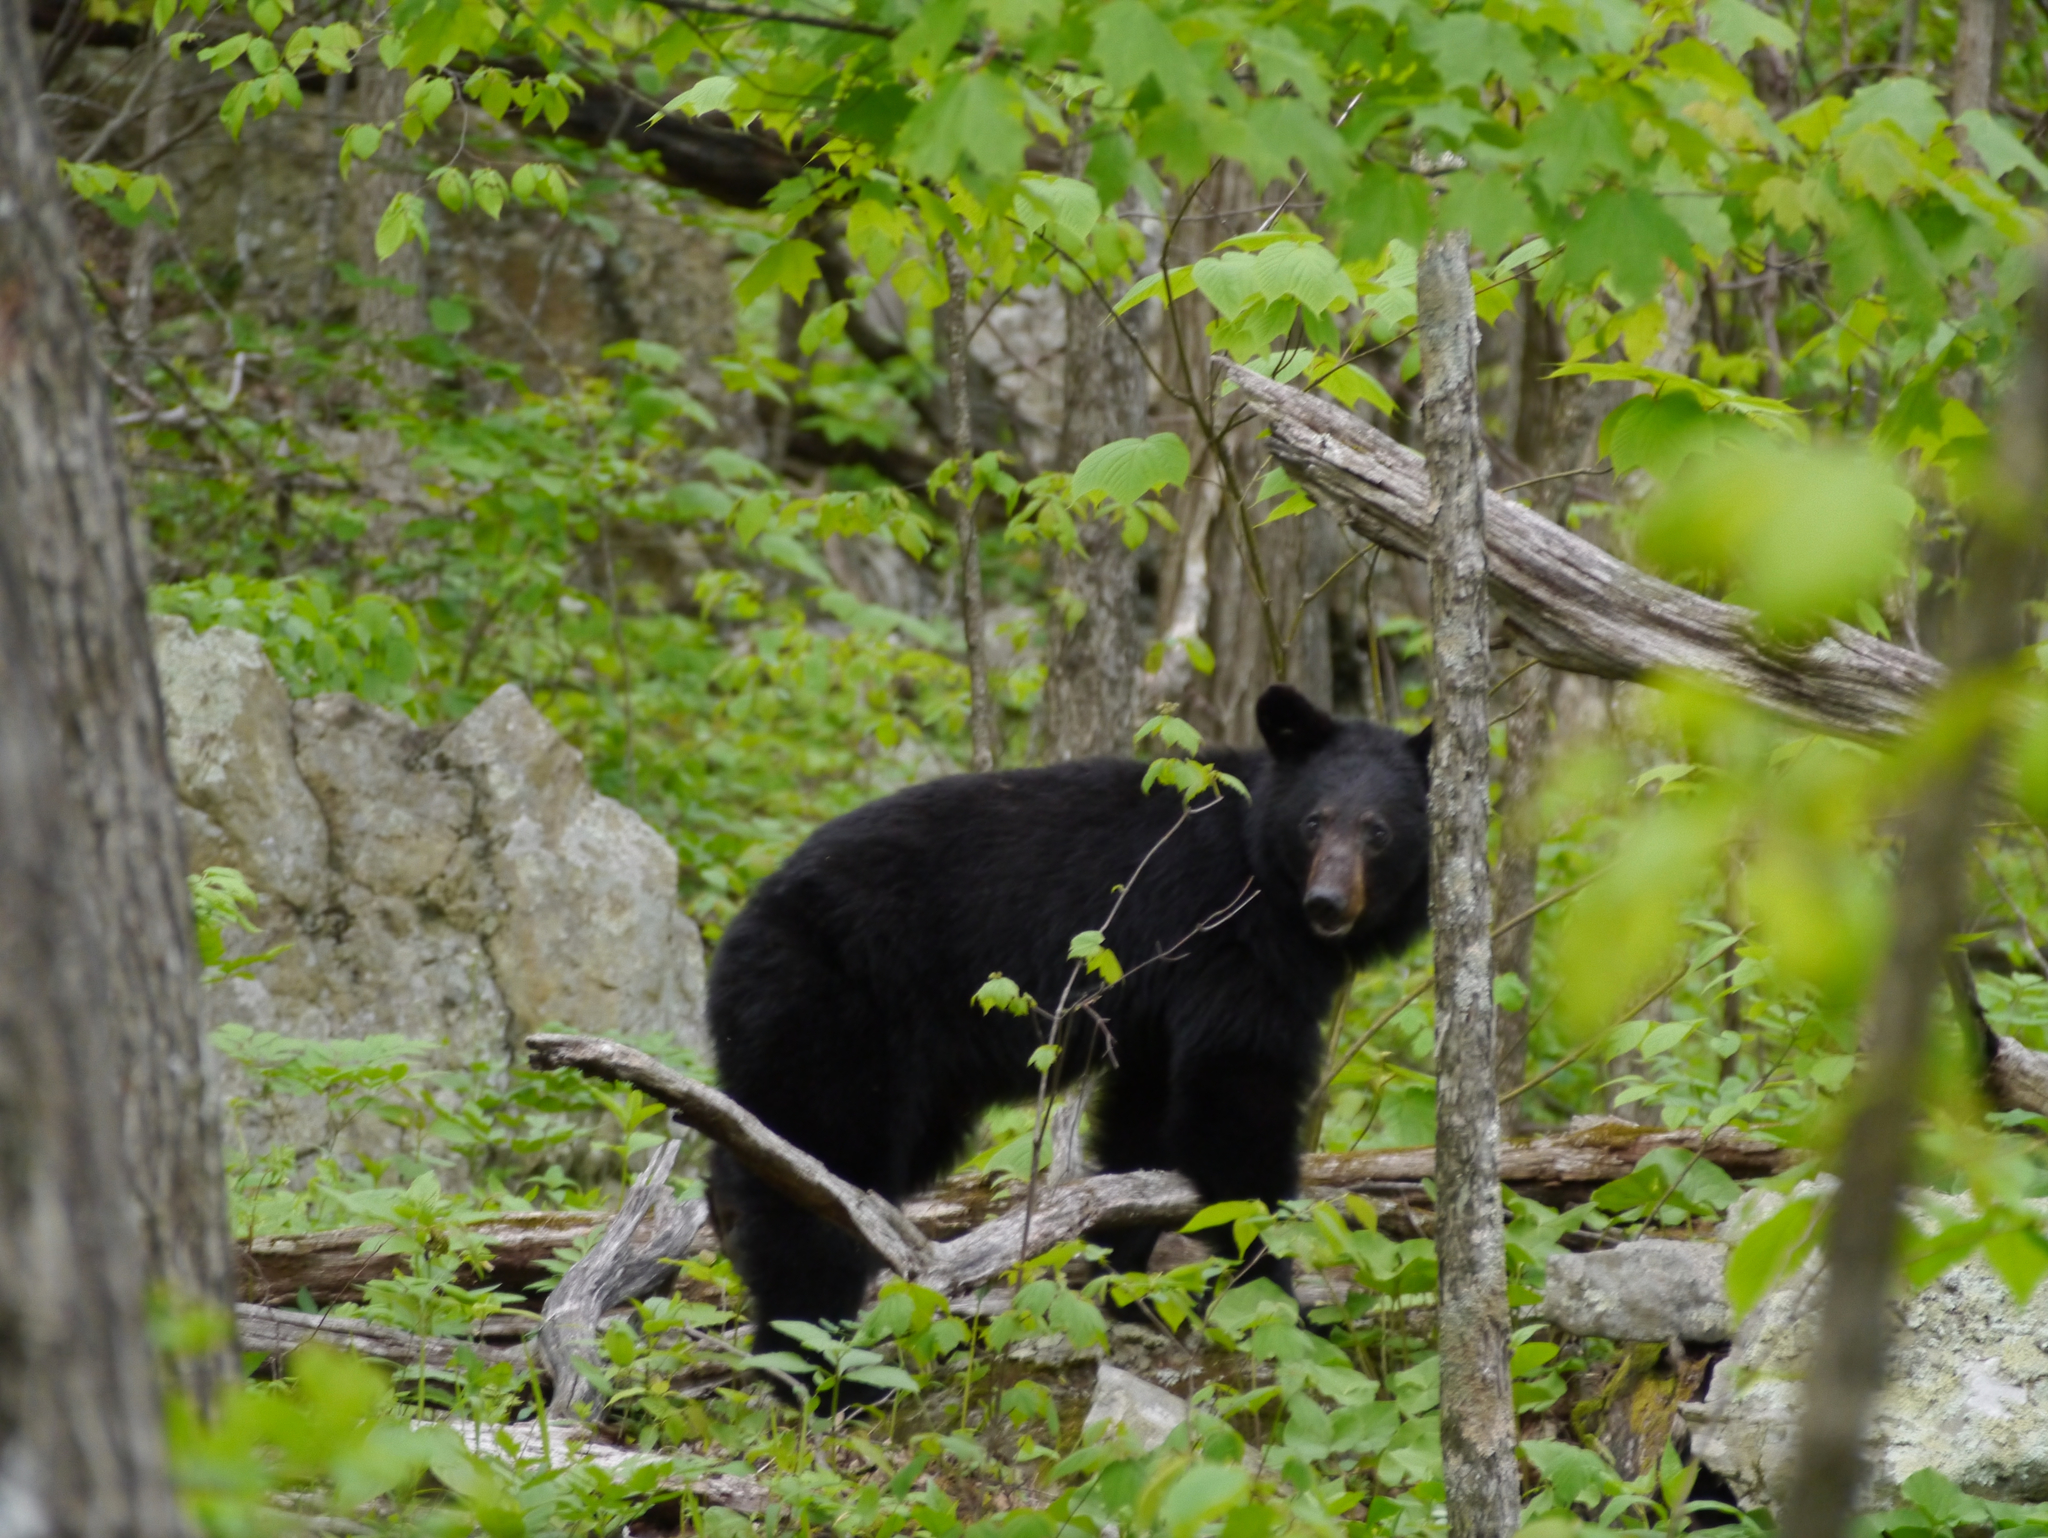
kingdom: Animalia
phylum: Chordata
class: Mammalia
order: Carnivora
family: Ursidae
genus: Ursus
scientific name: Ursus americanus
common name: American black bear
